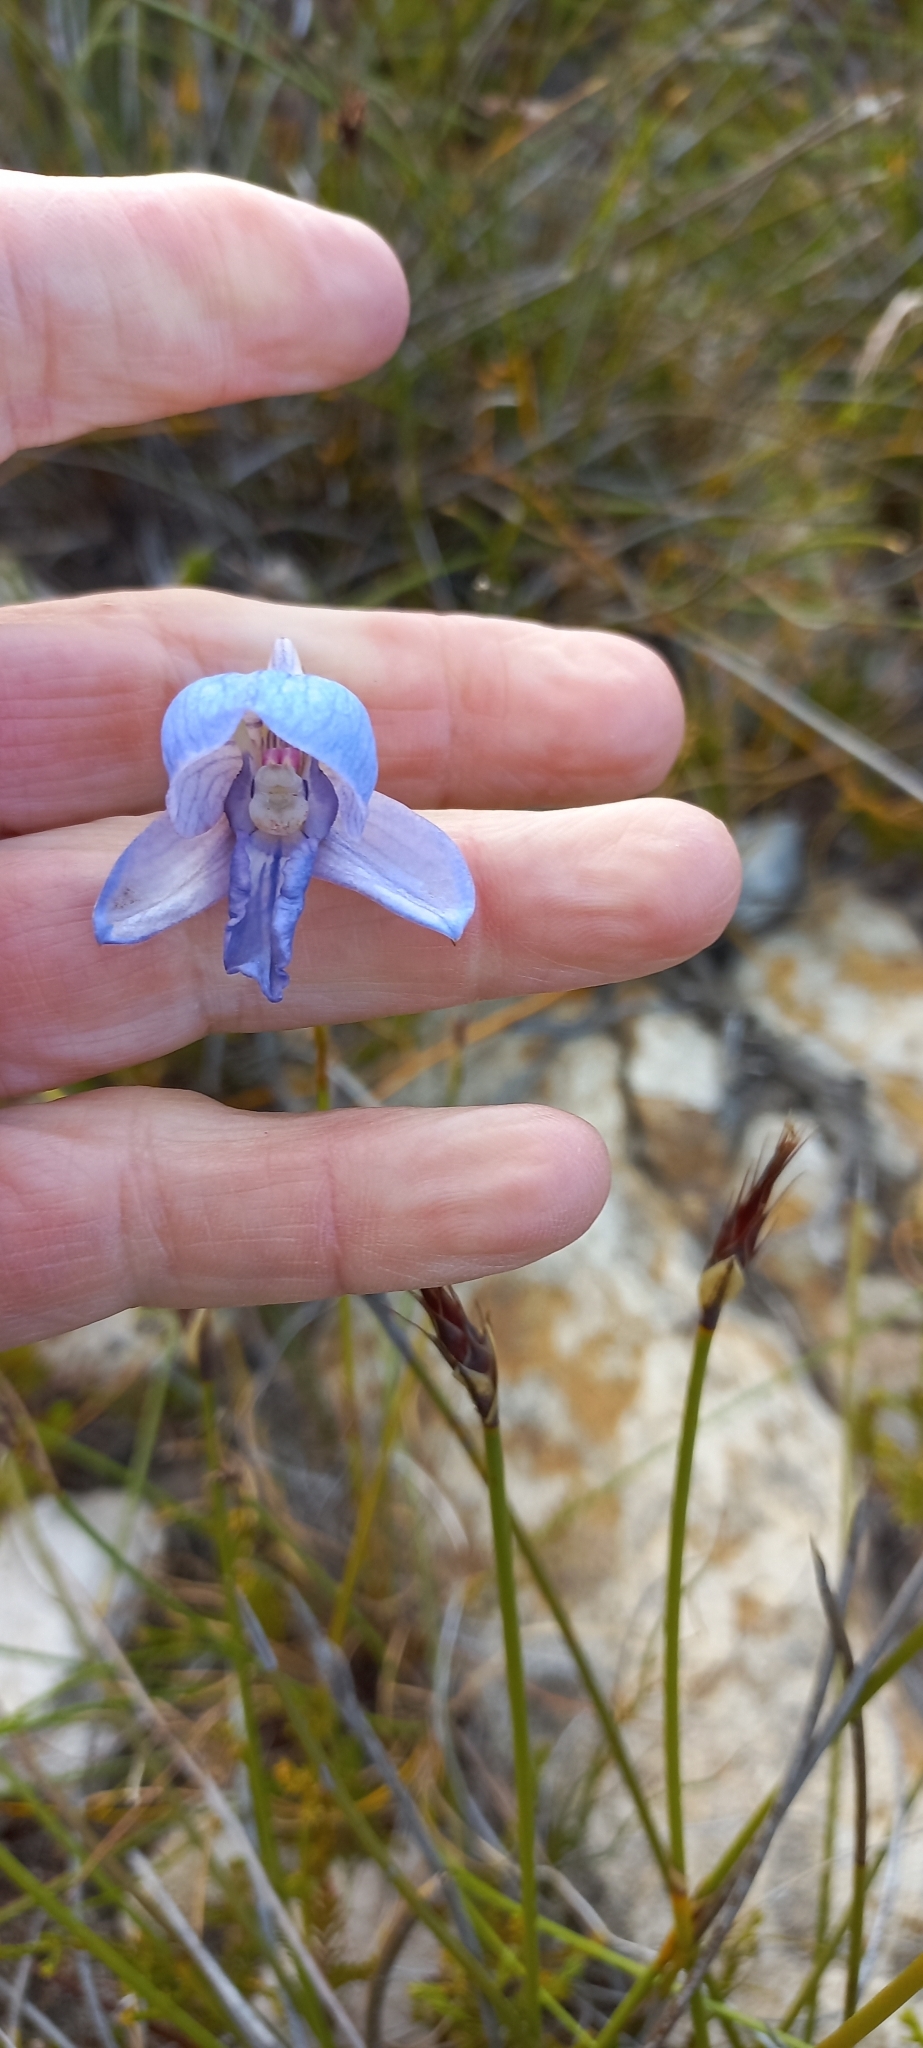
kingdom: Plantae
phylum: Tracheophyta
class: Liliopsida
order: Asparagales
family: Orchidaceae
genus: Disa
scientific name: Disa purpurascens
